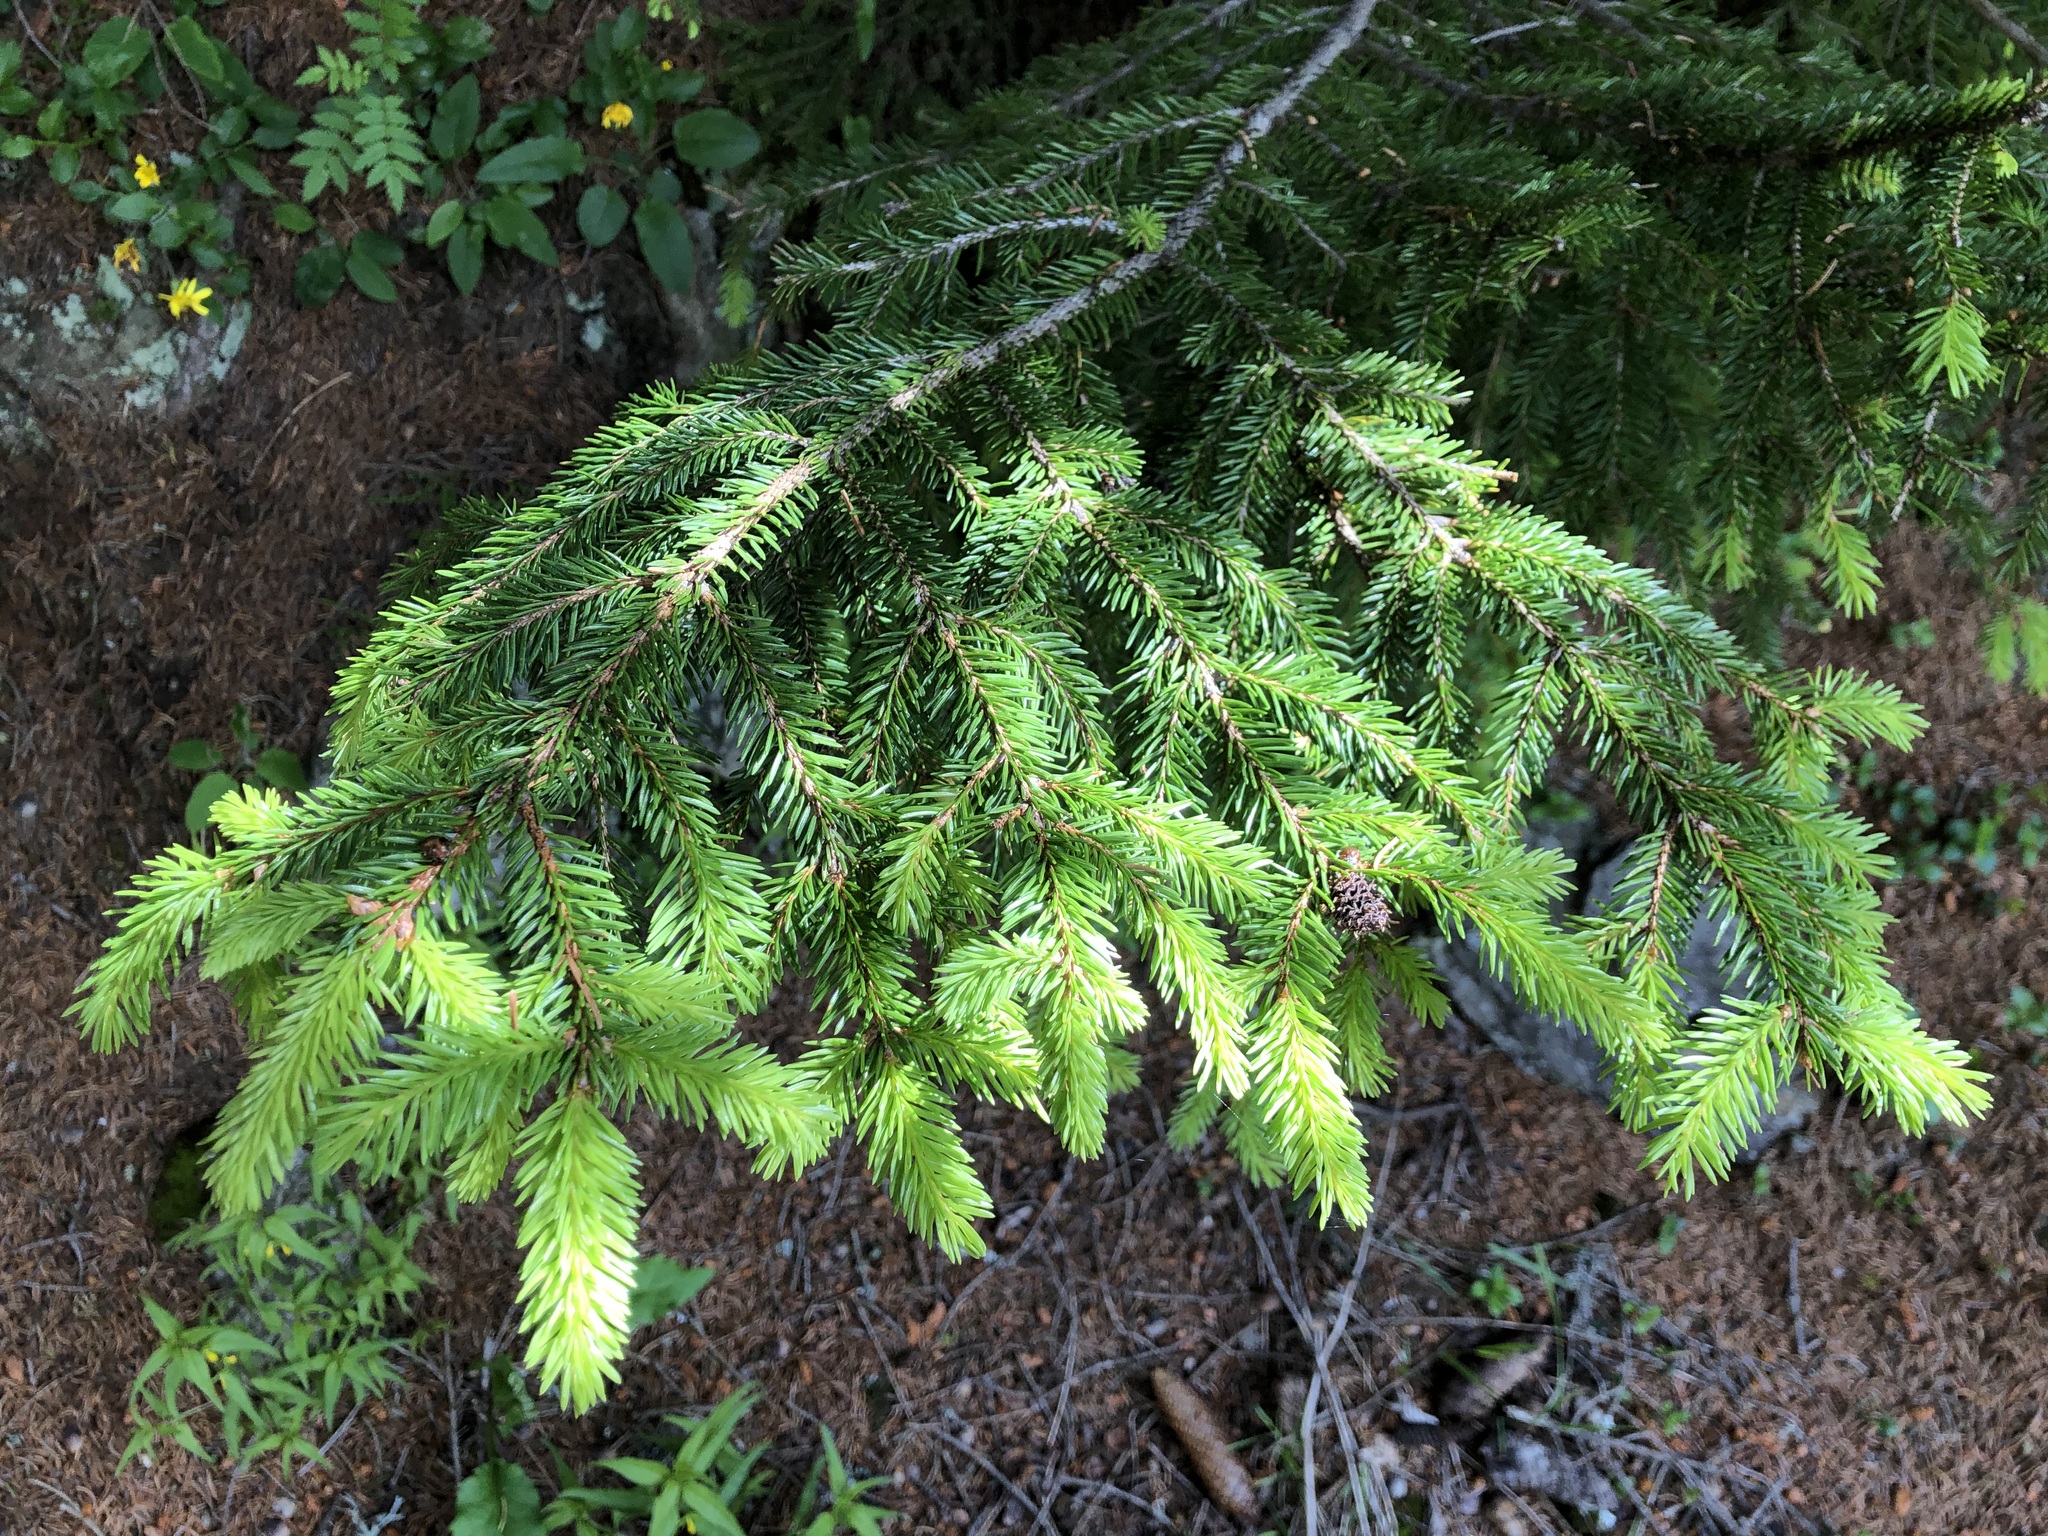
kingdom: Plantae
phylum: Tracheophyta
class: Pinopsida
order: Pinales
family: Pinaceae
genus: Picea
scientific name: Picea abies
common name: Norway spruce
